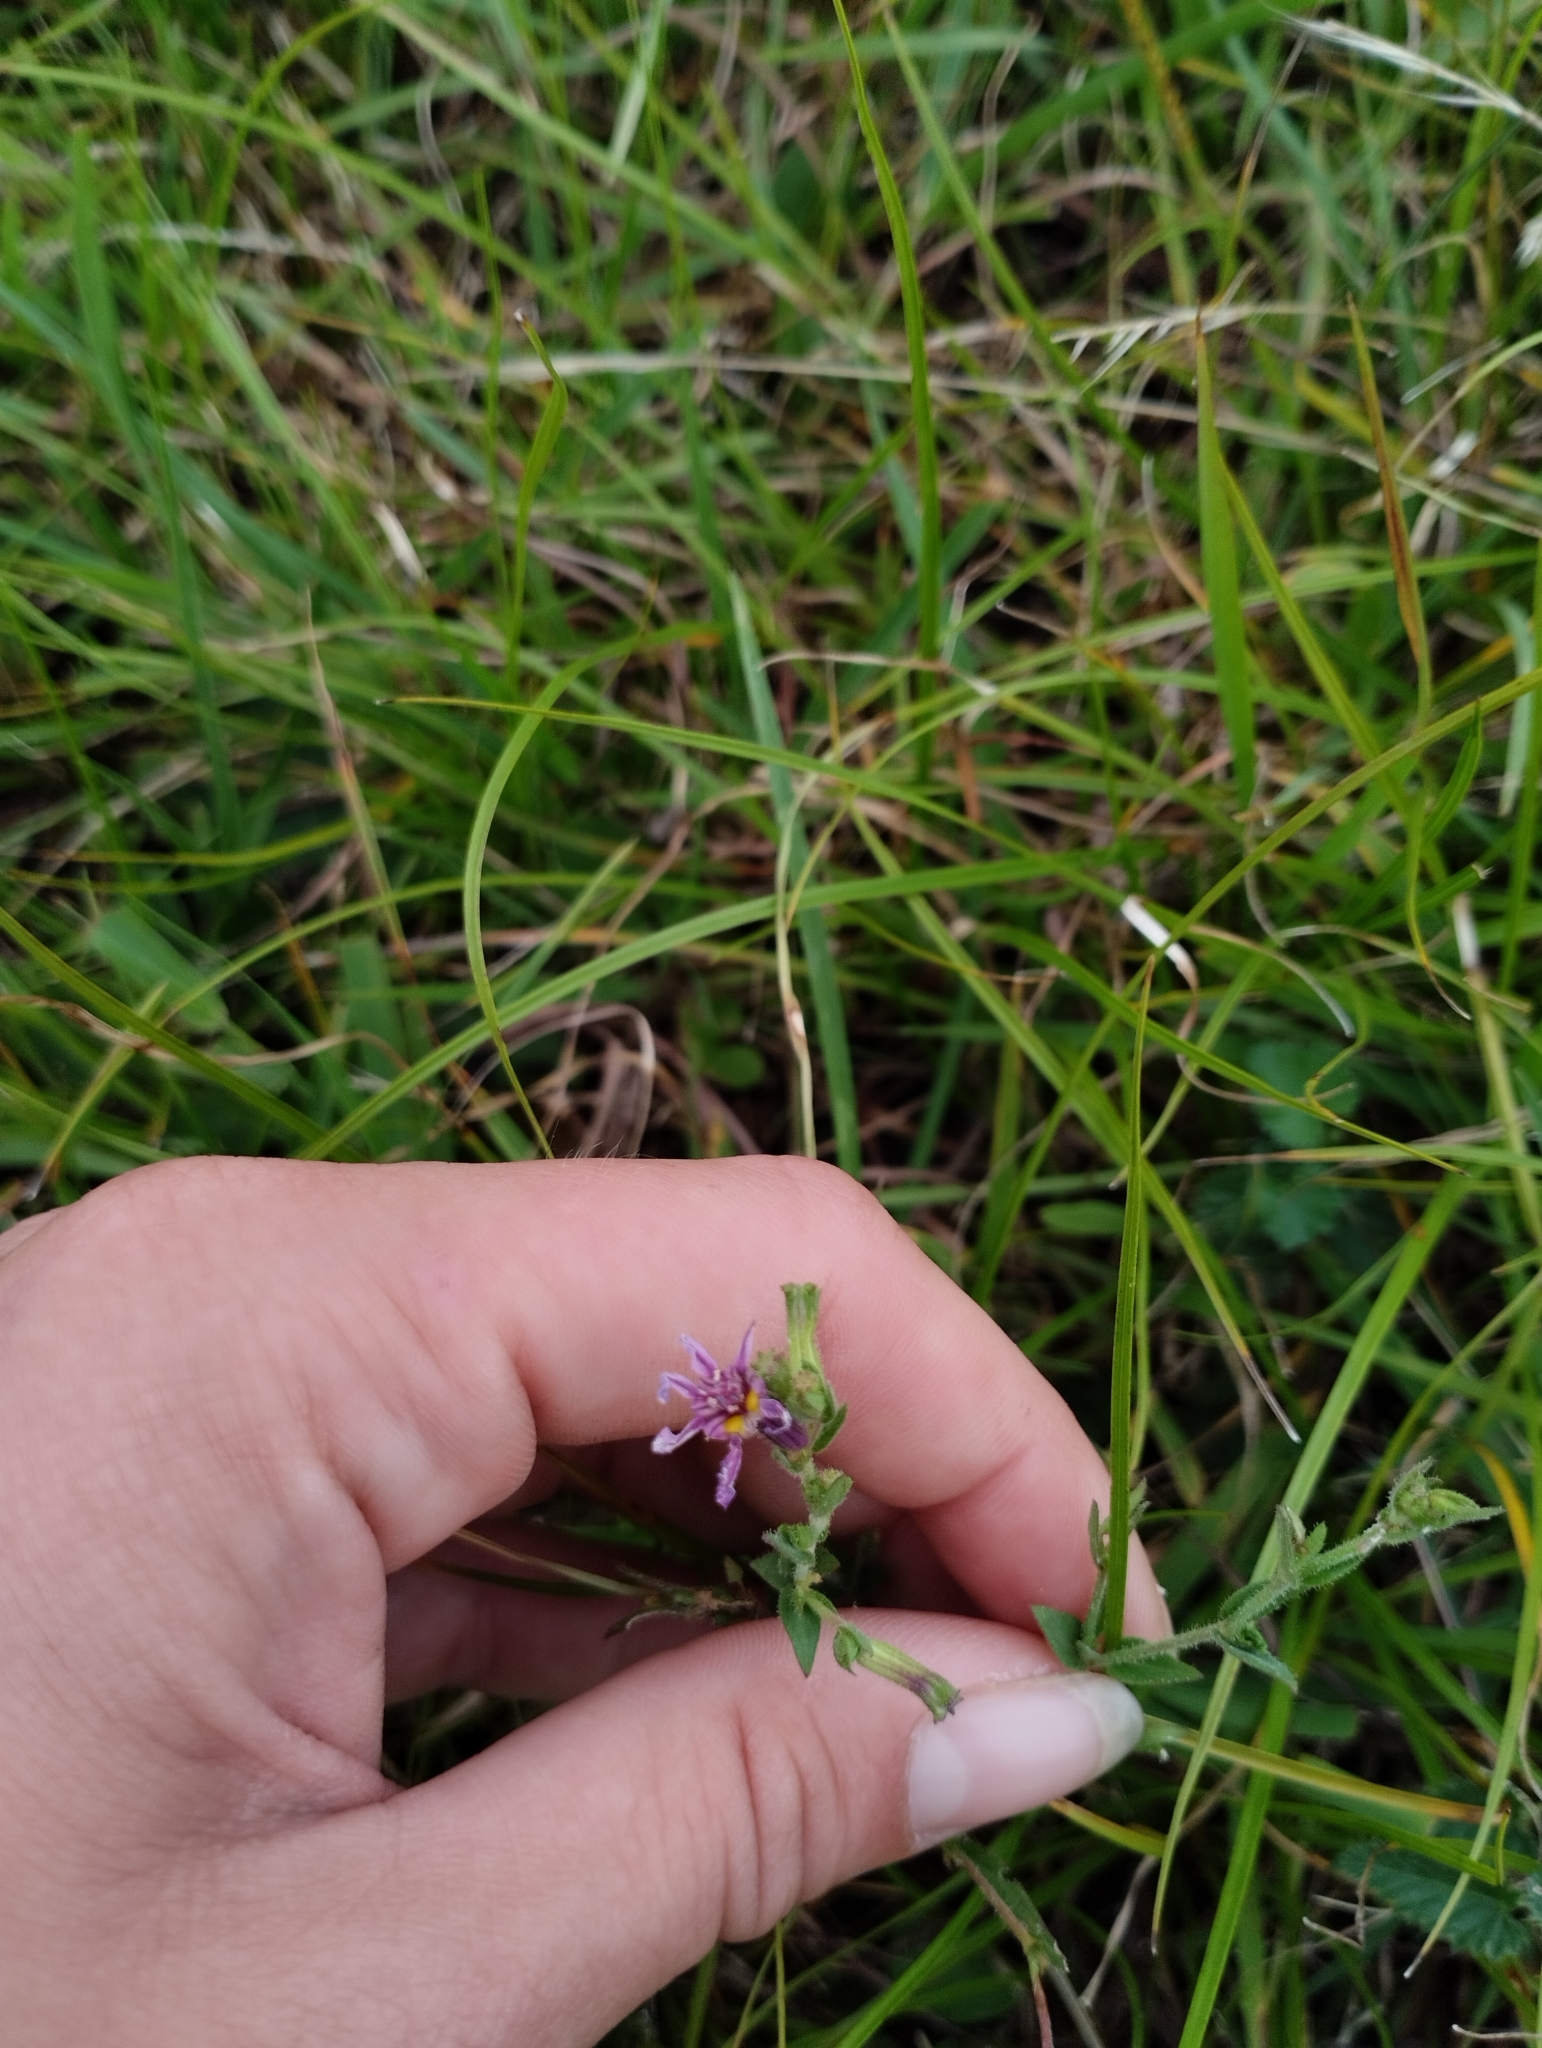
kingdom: Plantae
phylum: Tracheophyta
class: Magnoliopsida
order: Myrtales
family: Lythraceae
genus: Cuphea
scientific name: Cuphea glutinosa
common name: Sticky waxweed
